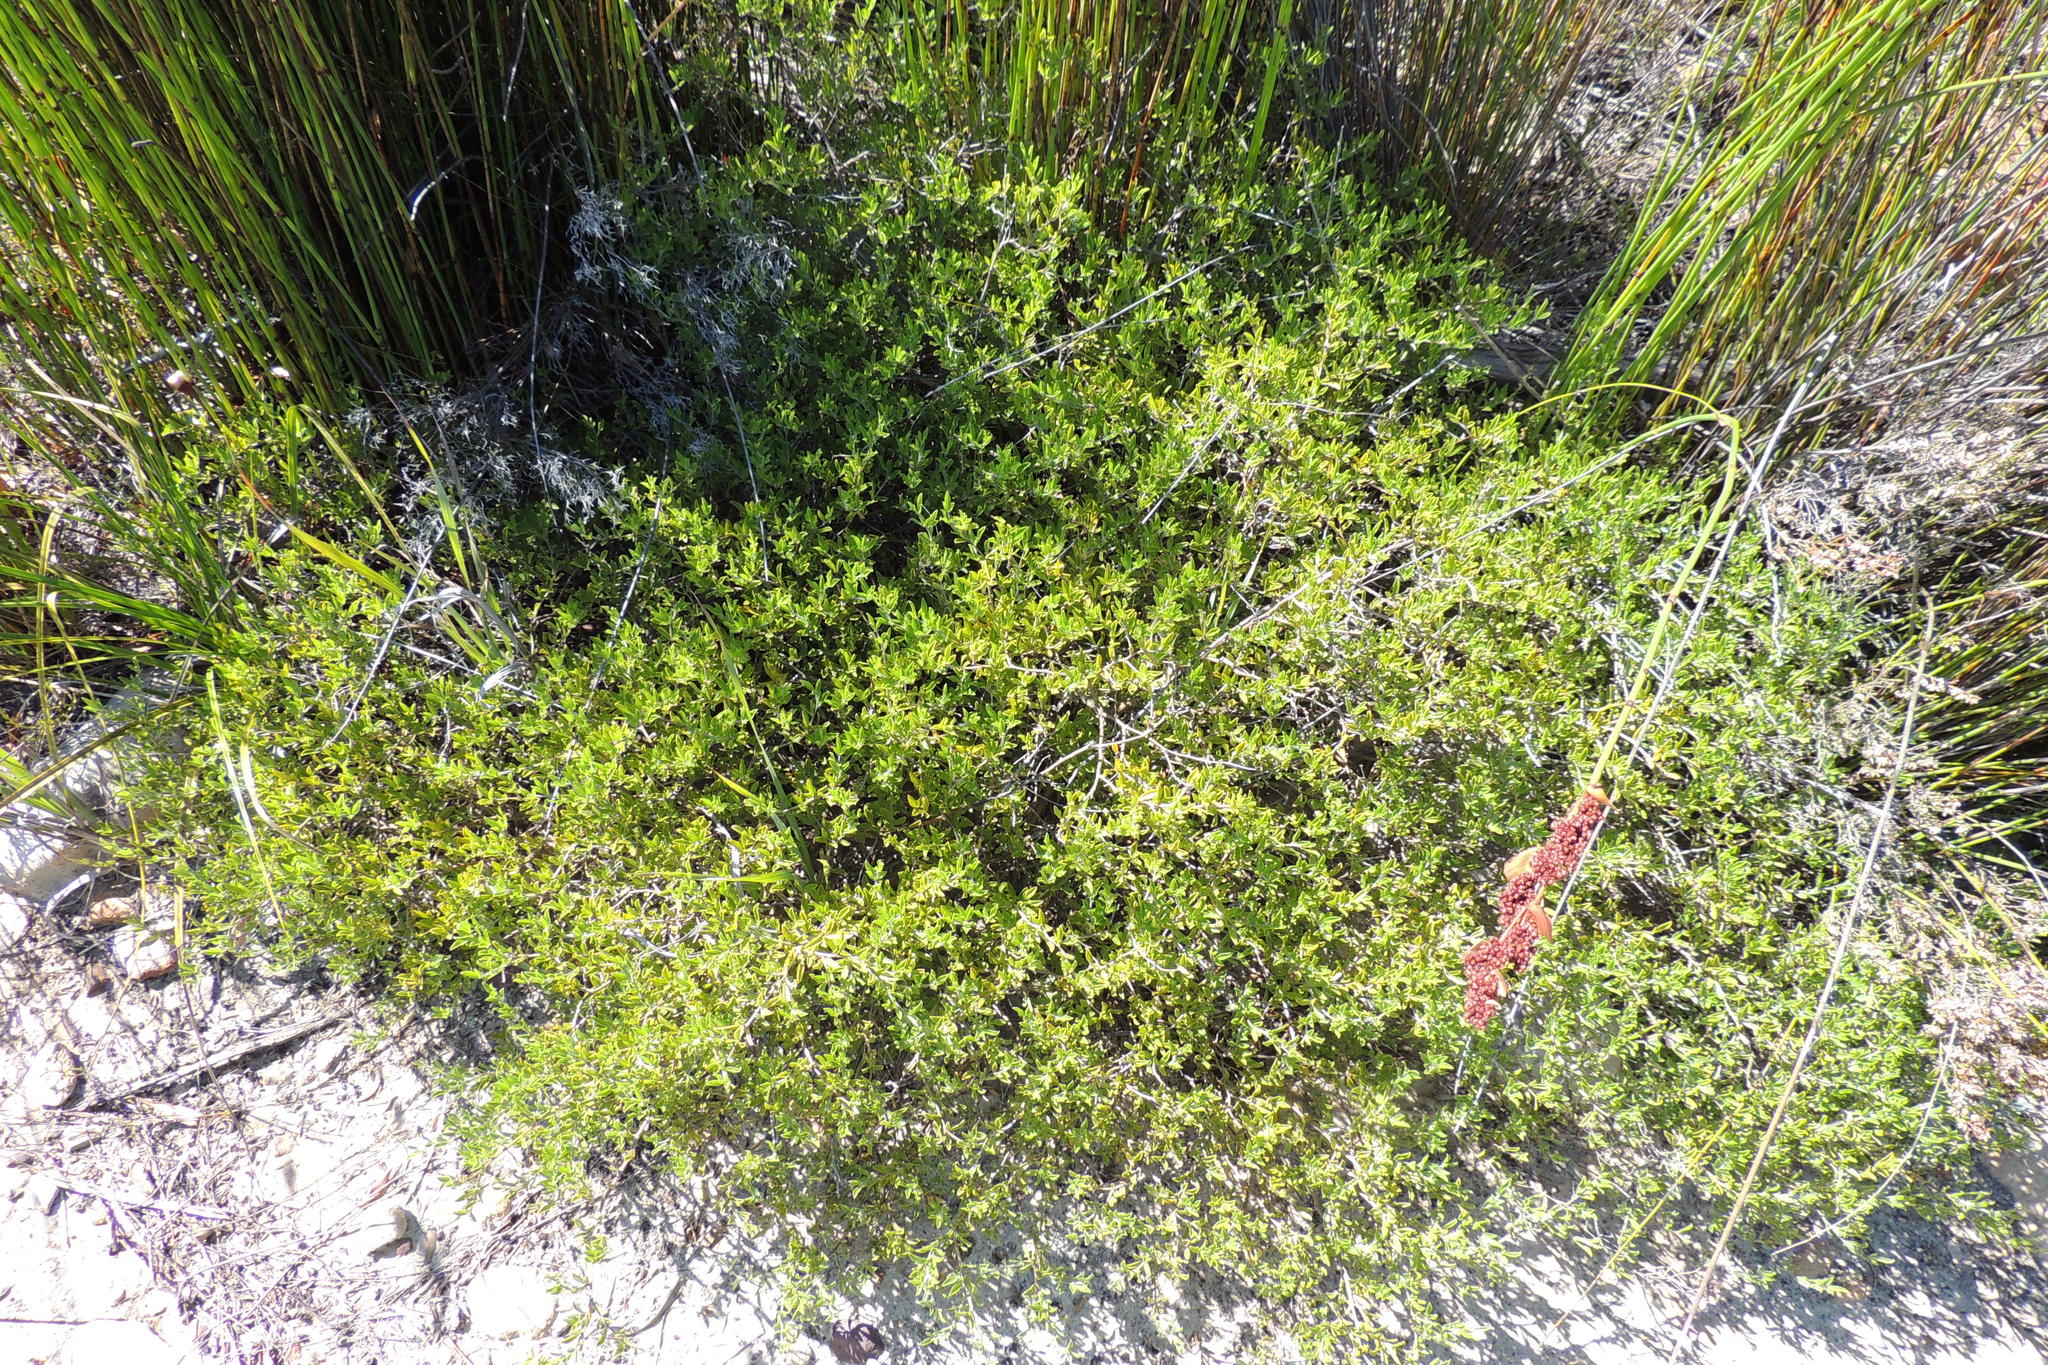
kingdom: Plantae
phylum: Tracheophyta
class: Magnoliopsida
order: Fabales
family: Fabaceae
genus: Psoralea
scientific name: Psoralea bowieana
